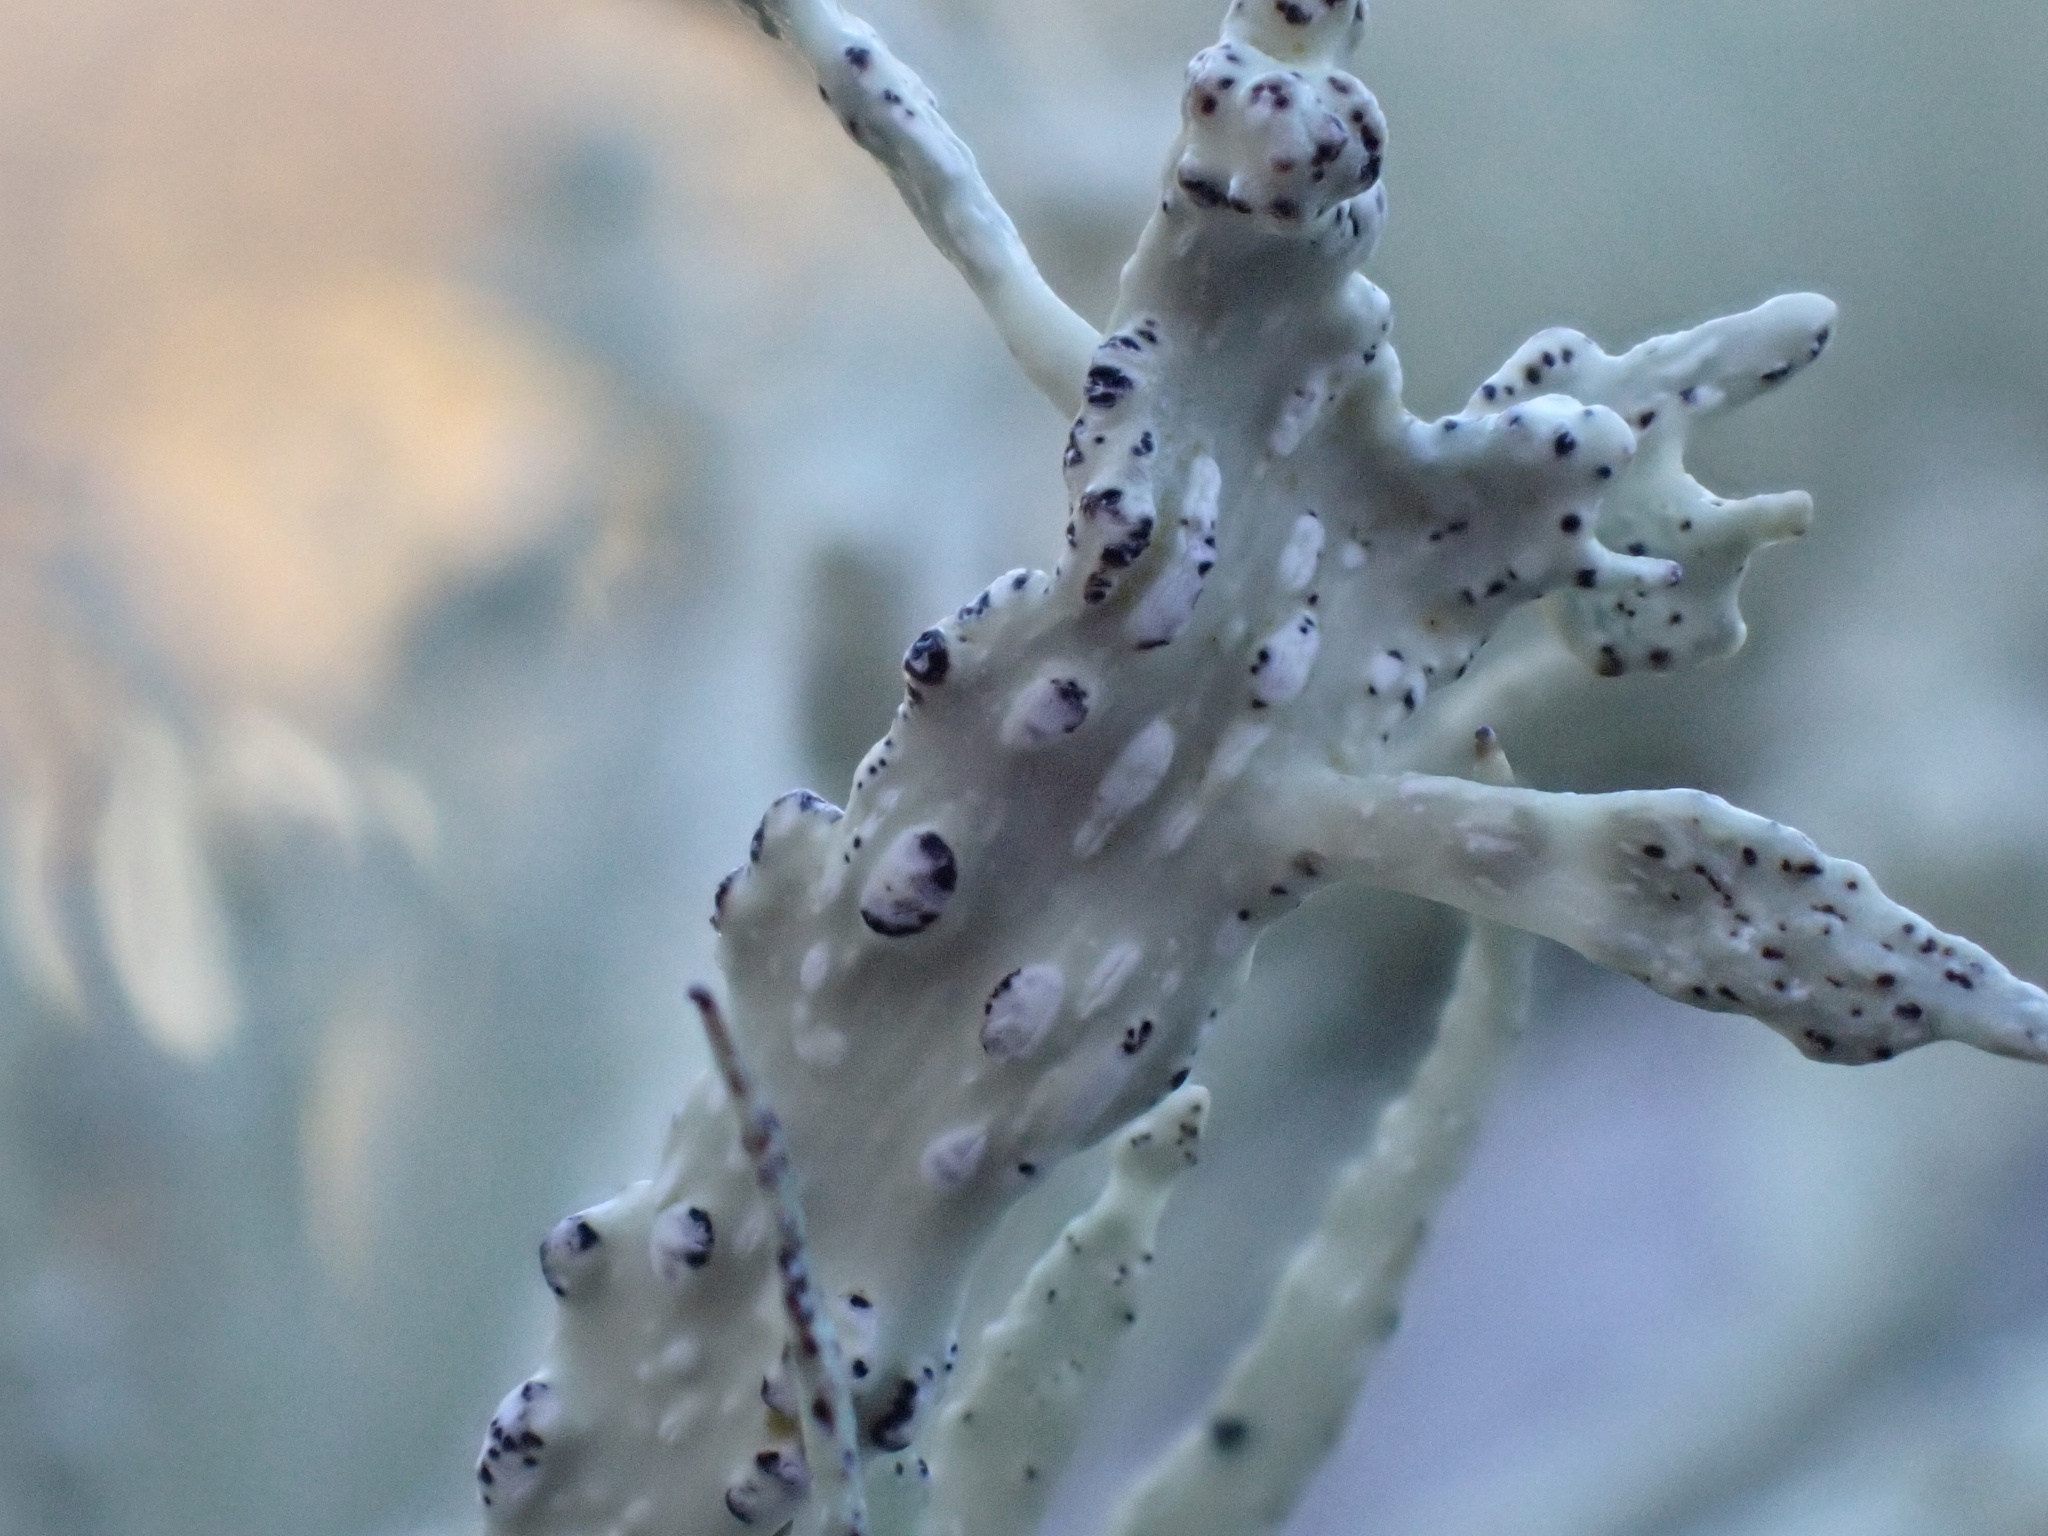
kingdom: Fungi
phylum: Ascomycota
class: Lecanoromycetes
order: Lecanorales
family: Ramalinaceae
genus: Ramalina
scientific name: Ramalina siliquosa
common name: Sea ivory
